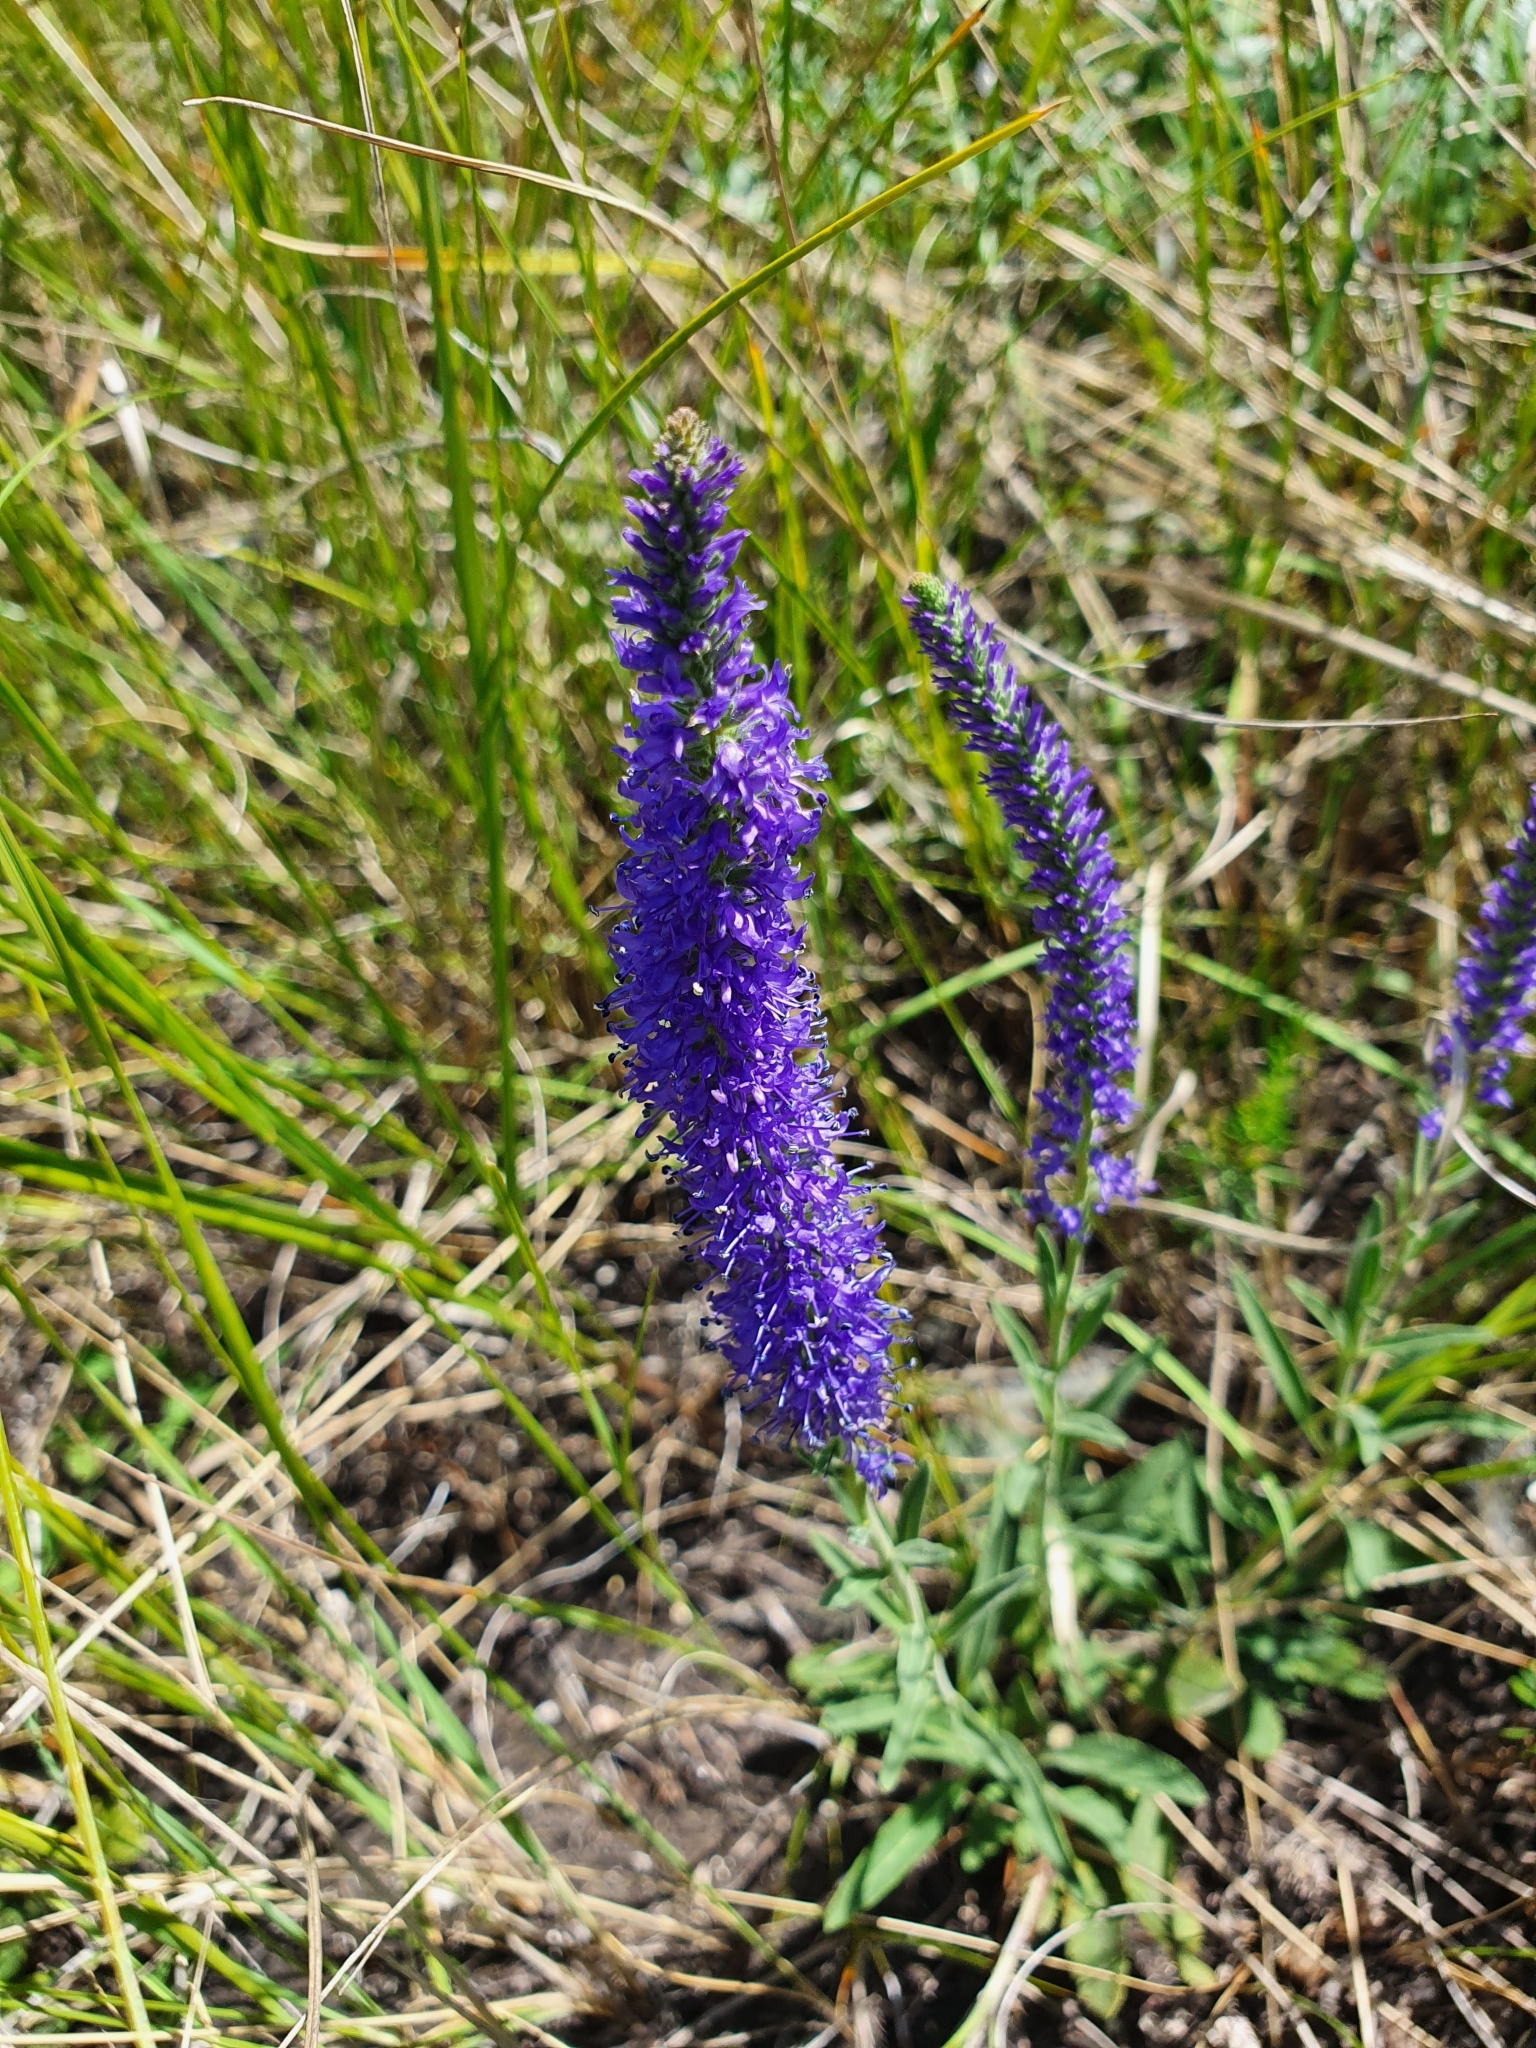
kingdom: Plantae
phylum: Tracheophyta
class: Magnoliopsida
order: Lamiales
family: Plantaginaceae
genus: Veronica
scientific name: Veronica spicata
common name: Spiked speedwell
